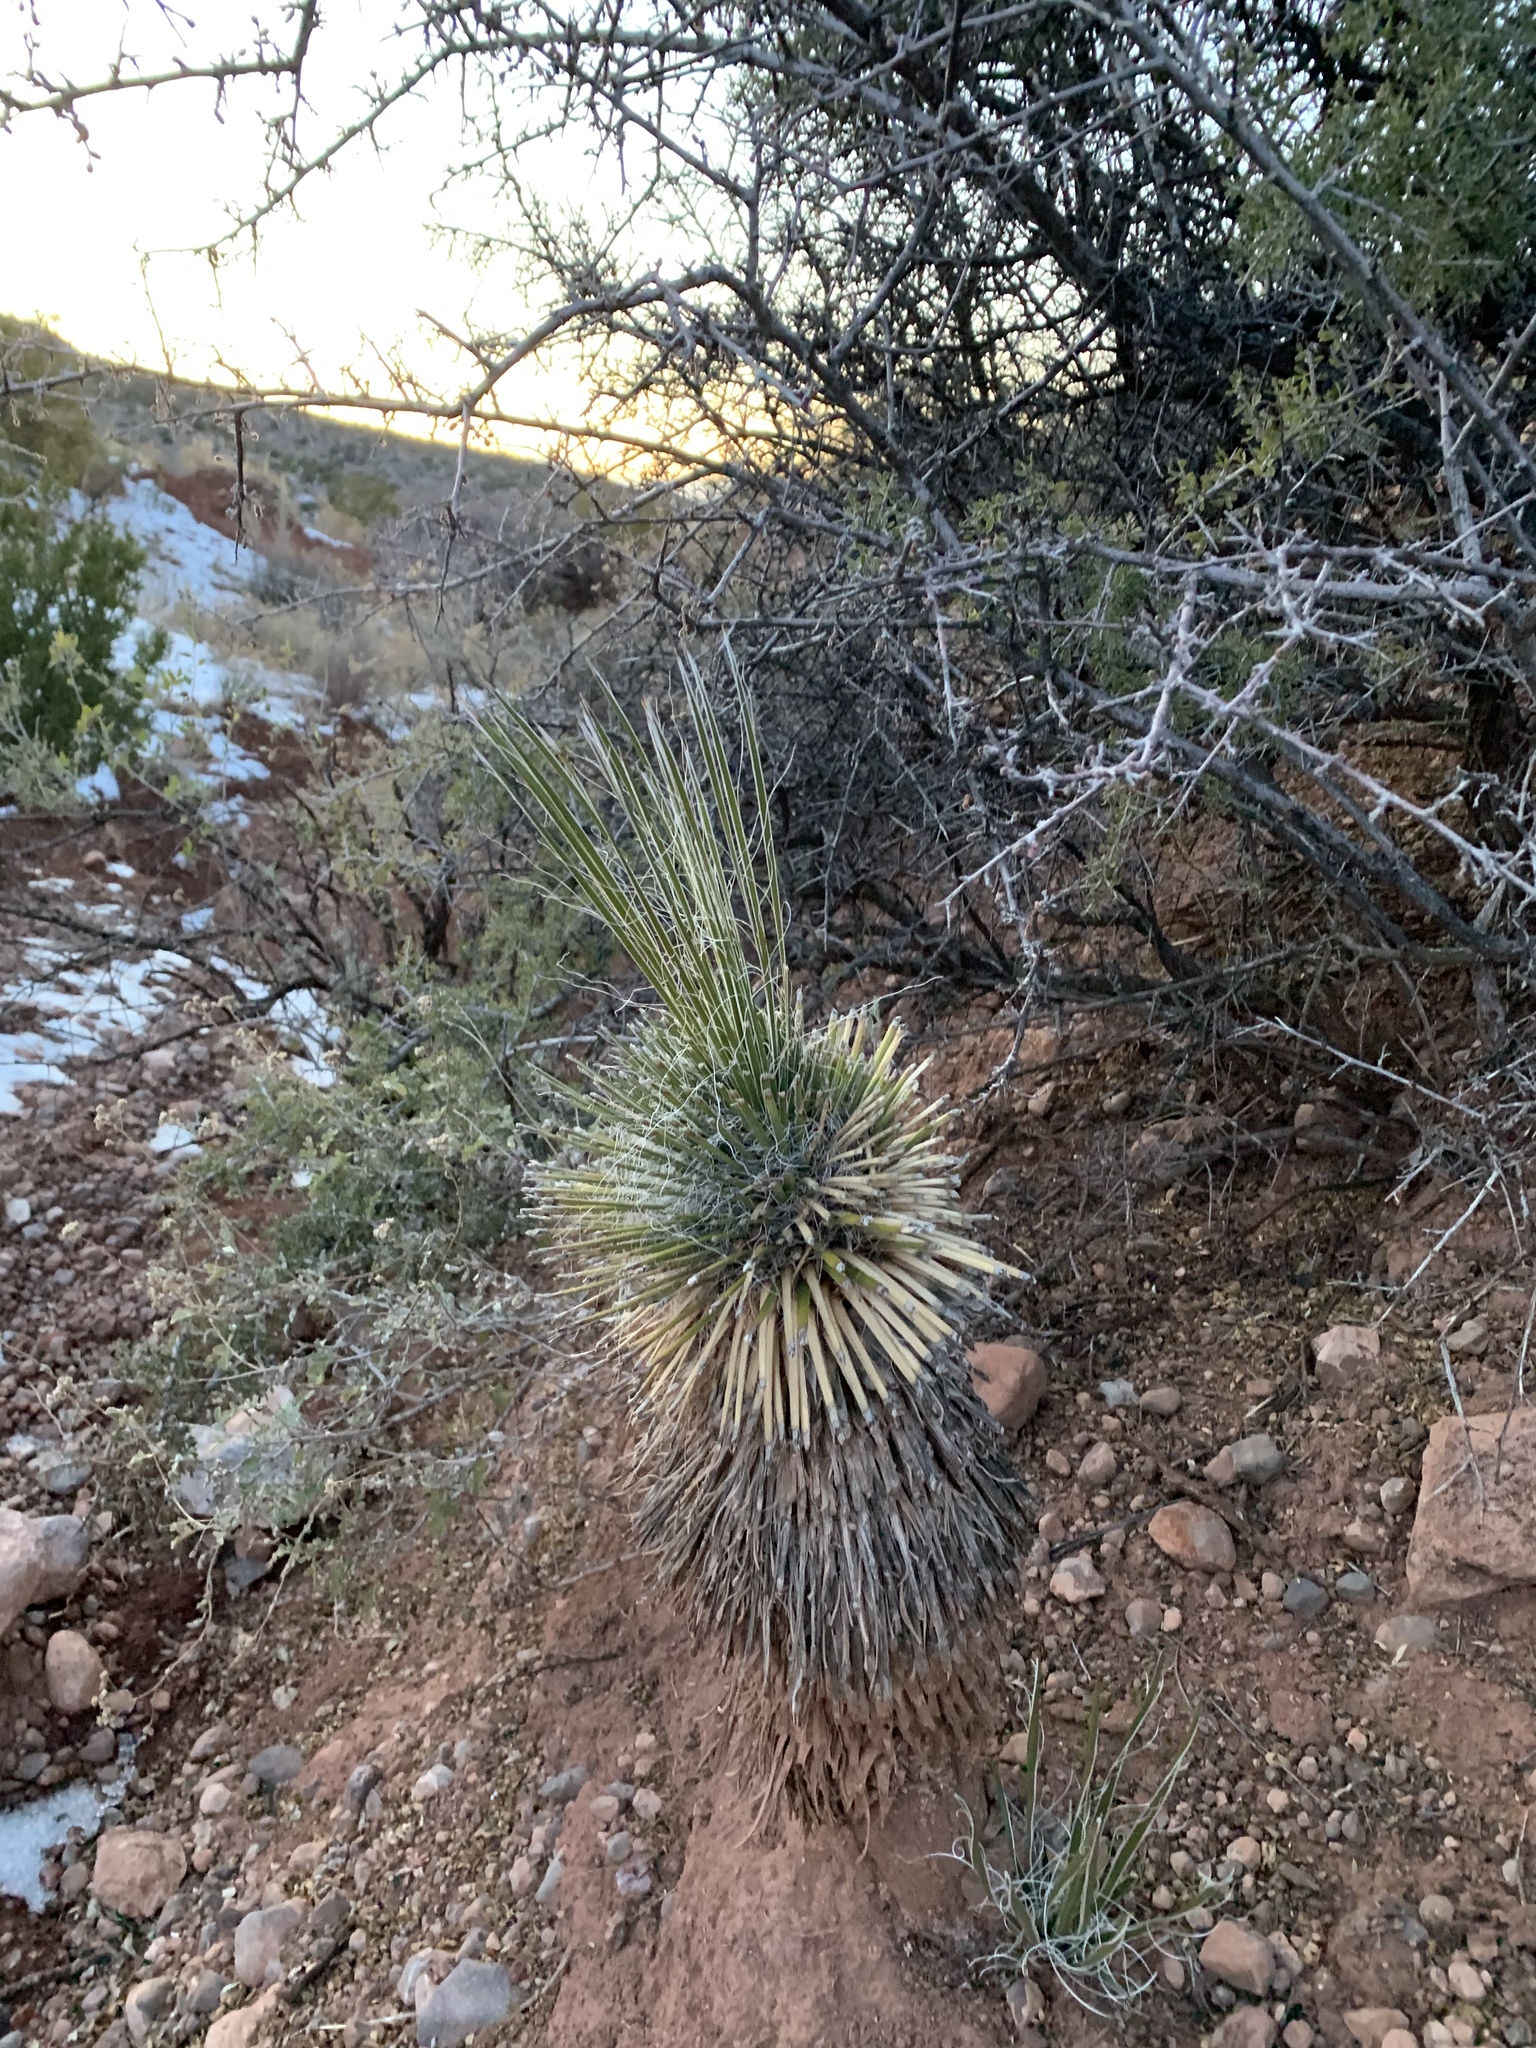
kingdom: Plantae
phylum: Tracheophyta
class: Liliopsida
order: Asparagales
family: Asparagaceae
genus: Yucca
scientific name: Yucca elata
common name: Palmella
